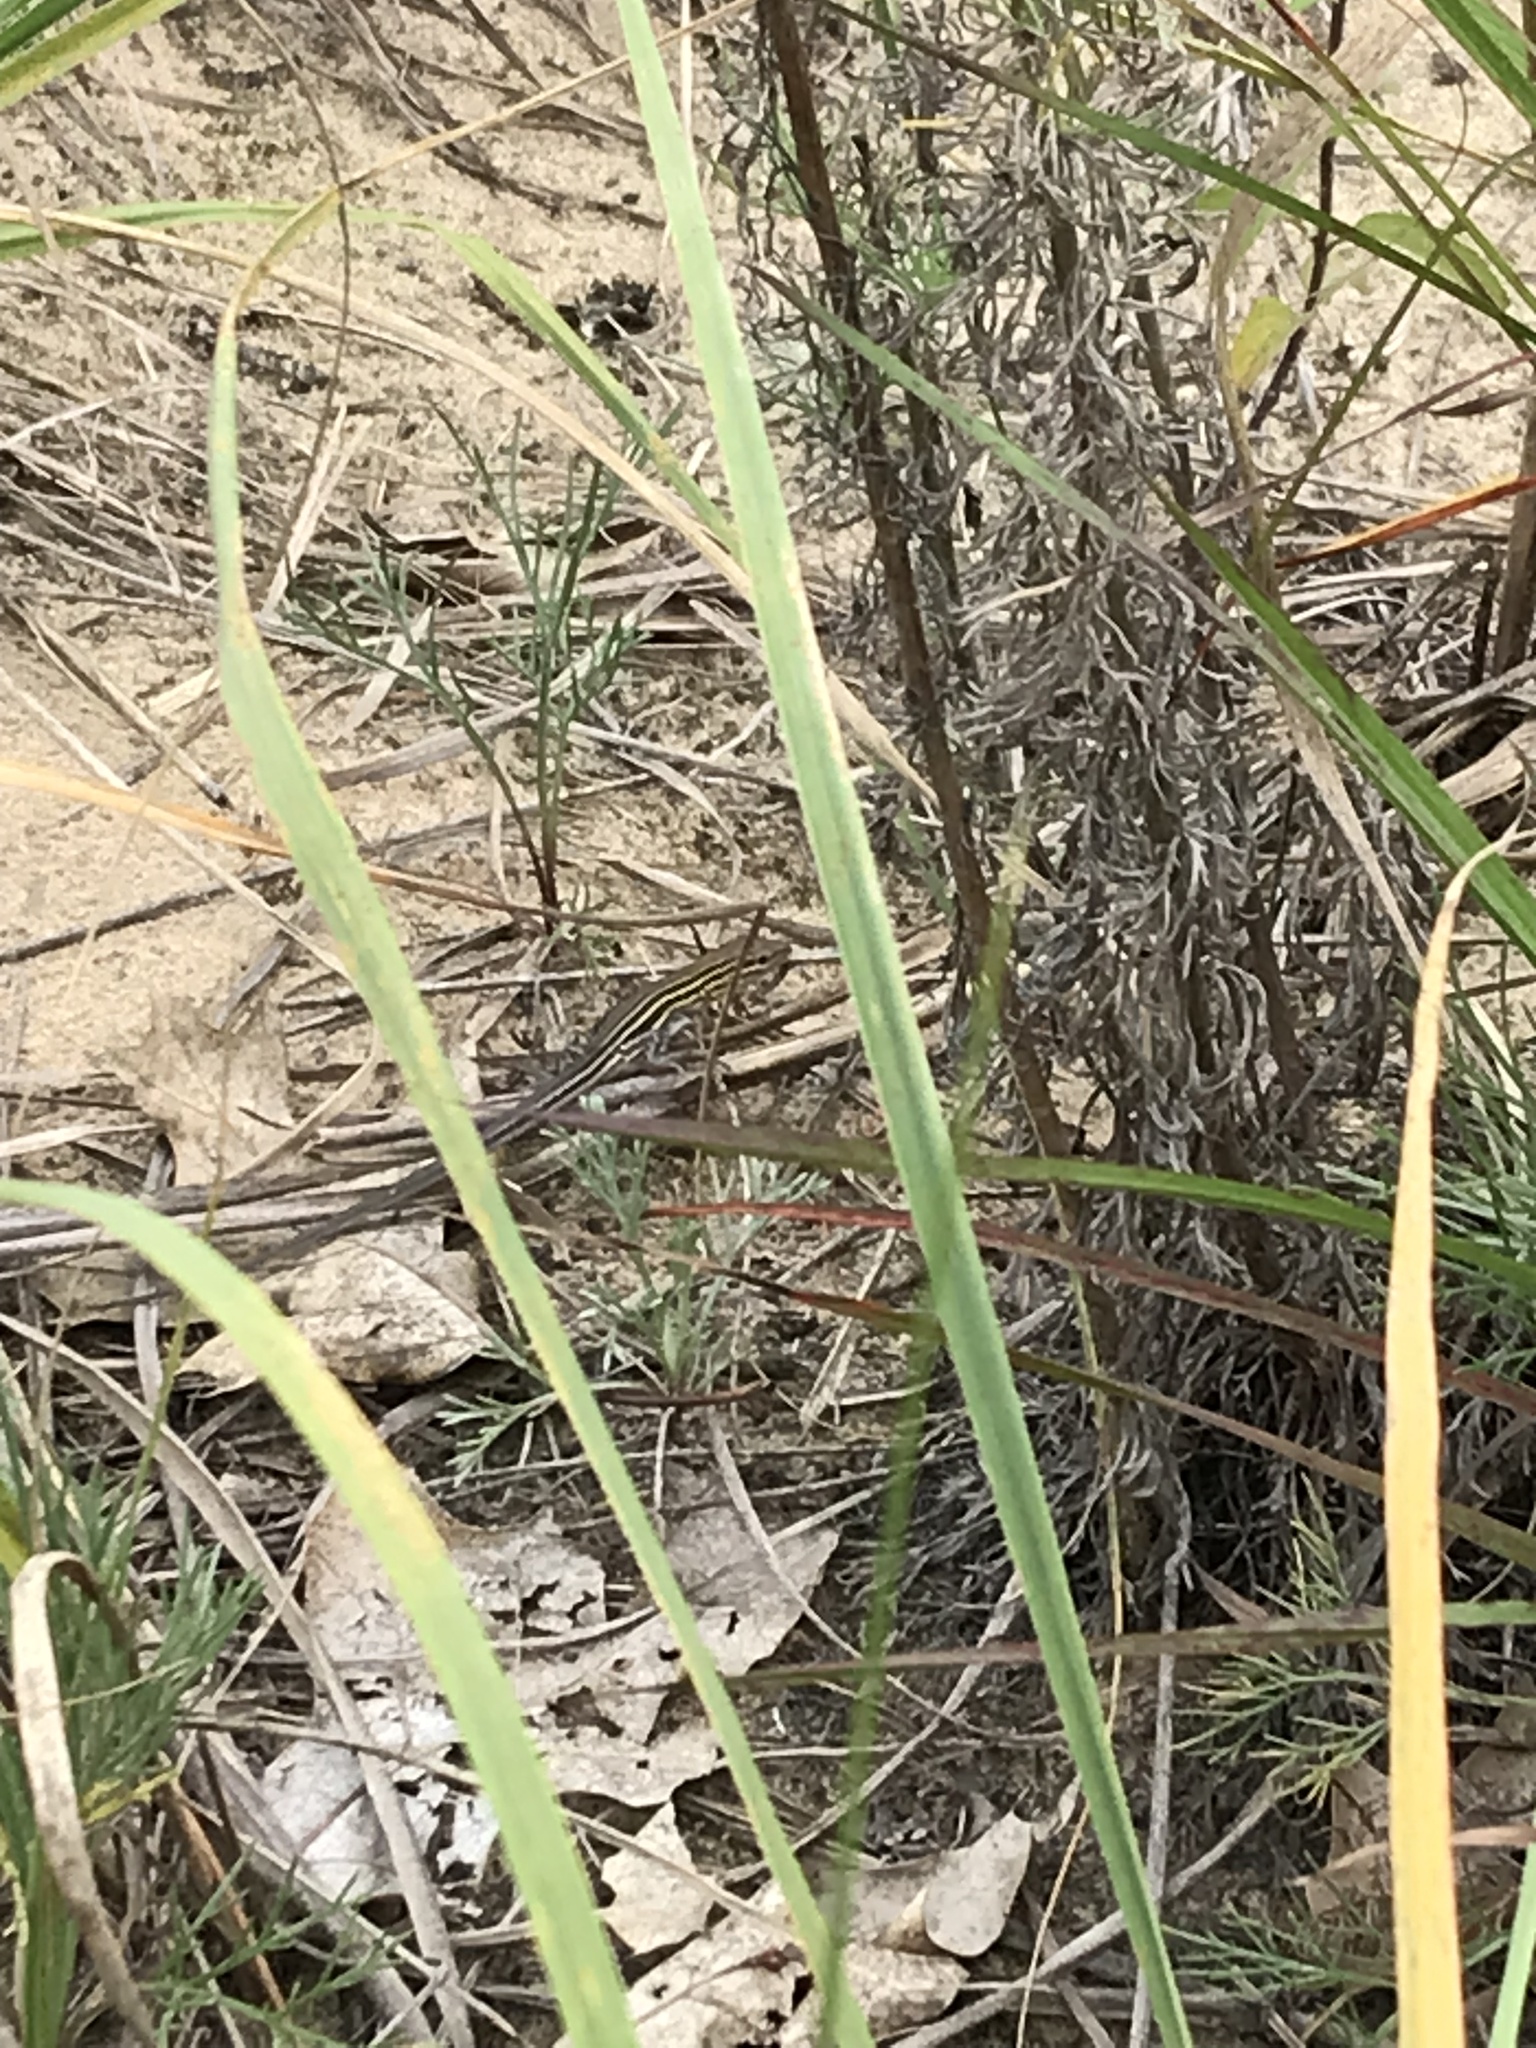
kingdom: Animalia
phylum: Chordata
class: Squamata
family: Teiidae
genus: Aspidoscelis
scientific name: Aspidoscelis sexlineatus
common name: Six-lined racerunner
